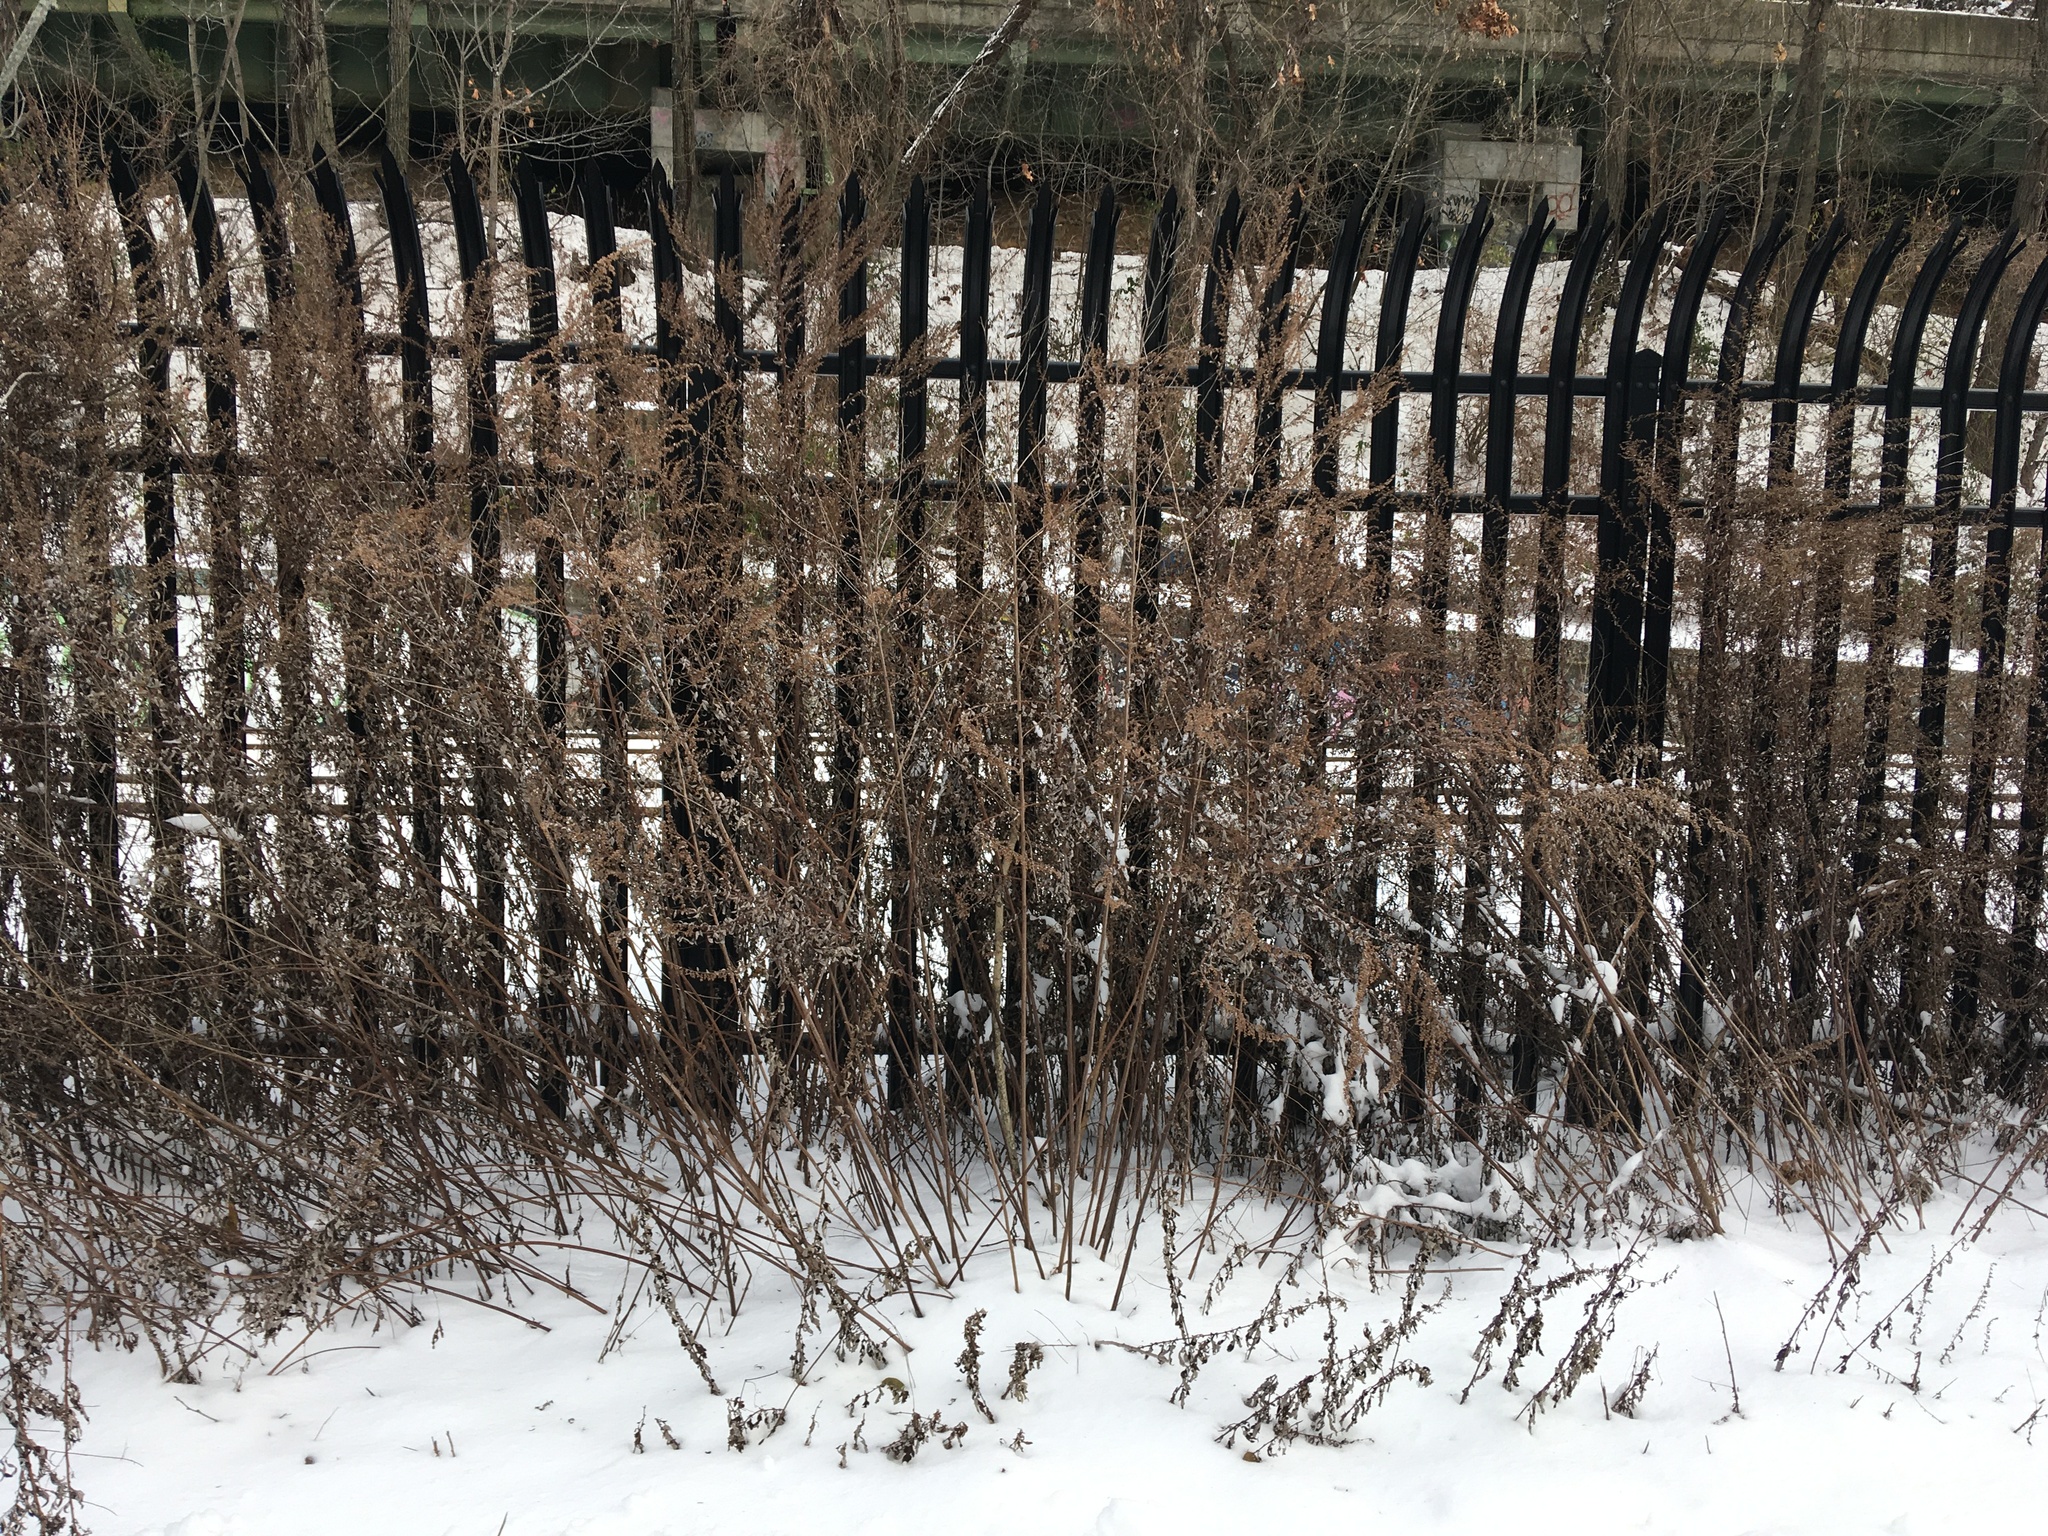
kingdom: Plantae
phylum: Tracheophyta
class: Magnoliopsida
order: Asterales
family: Asteraceae
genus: Artemisia
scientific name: Artemisia vulgaris
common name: Mugwort
